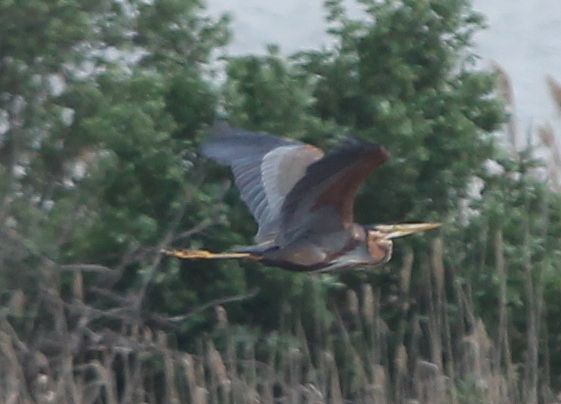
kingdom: Animalia
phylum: Chordata
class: Aves
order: Pelecaniformes
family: Ardeidae
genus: Ardea
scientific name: Ardea purpurea
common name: Purple heron
